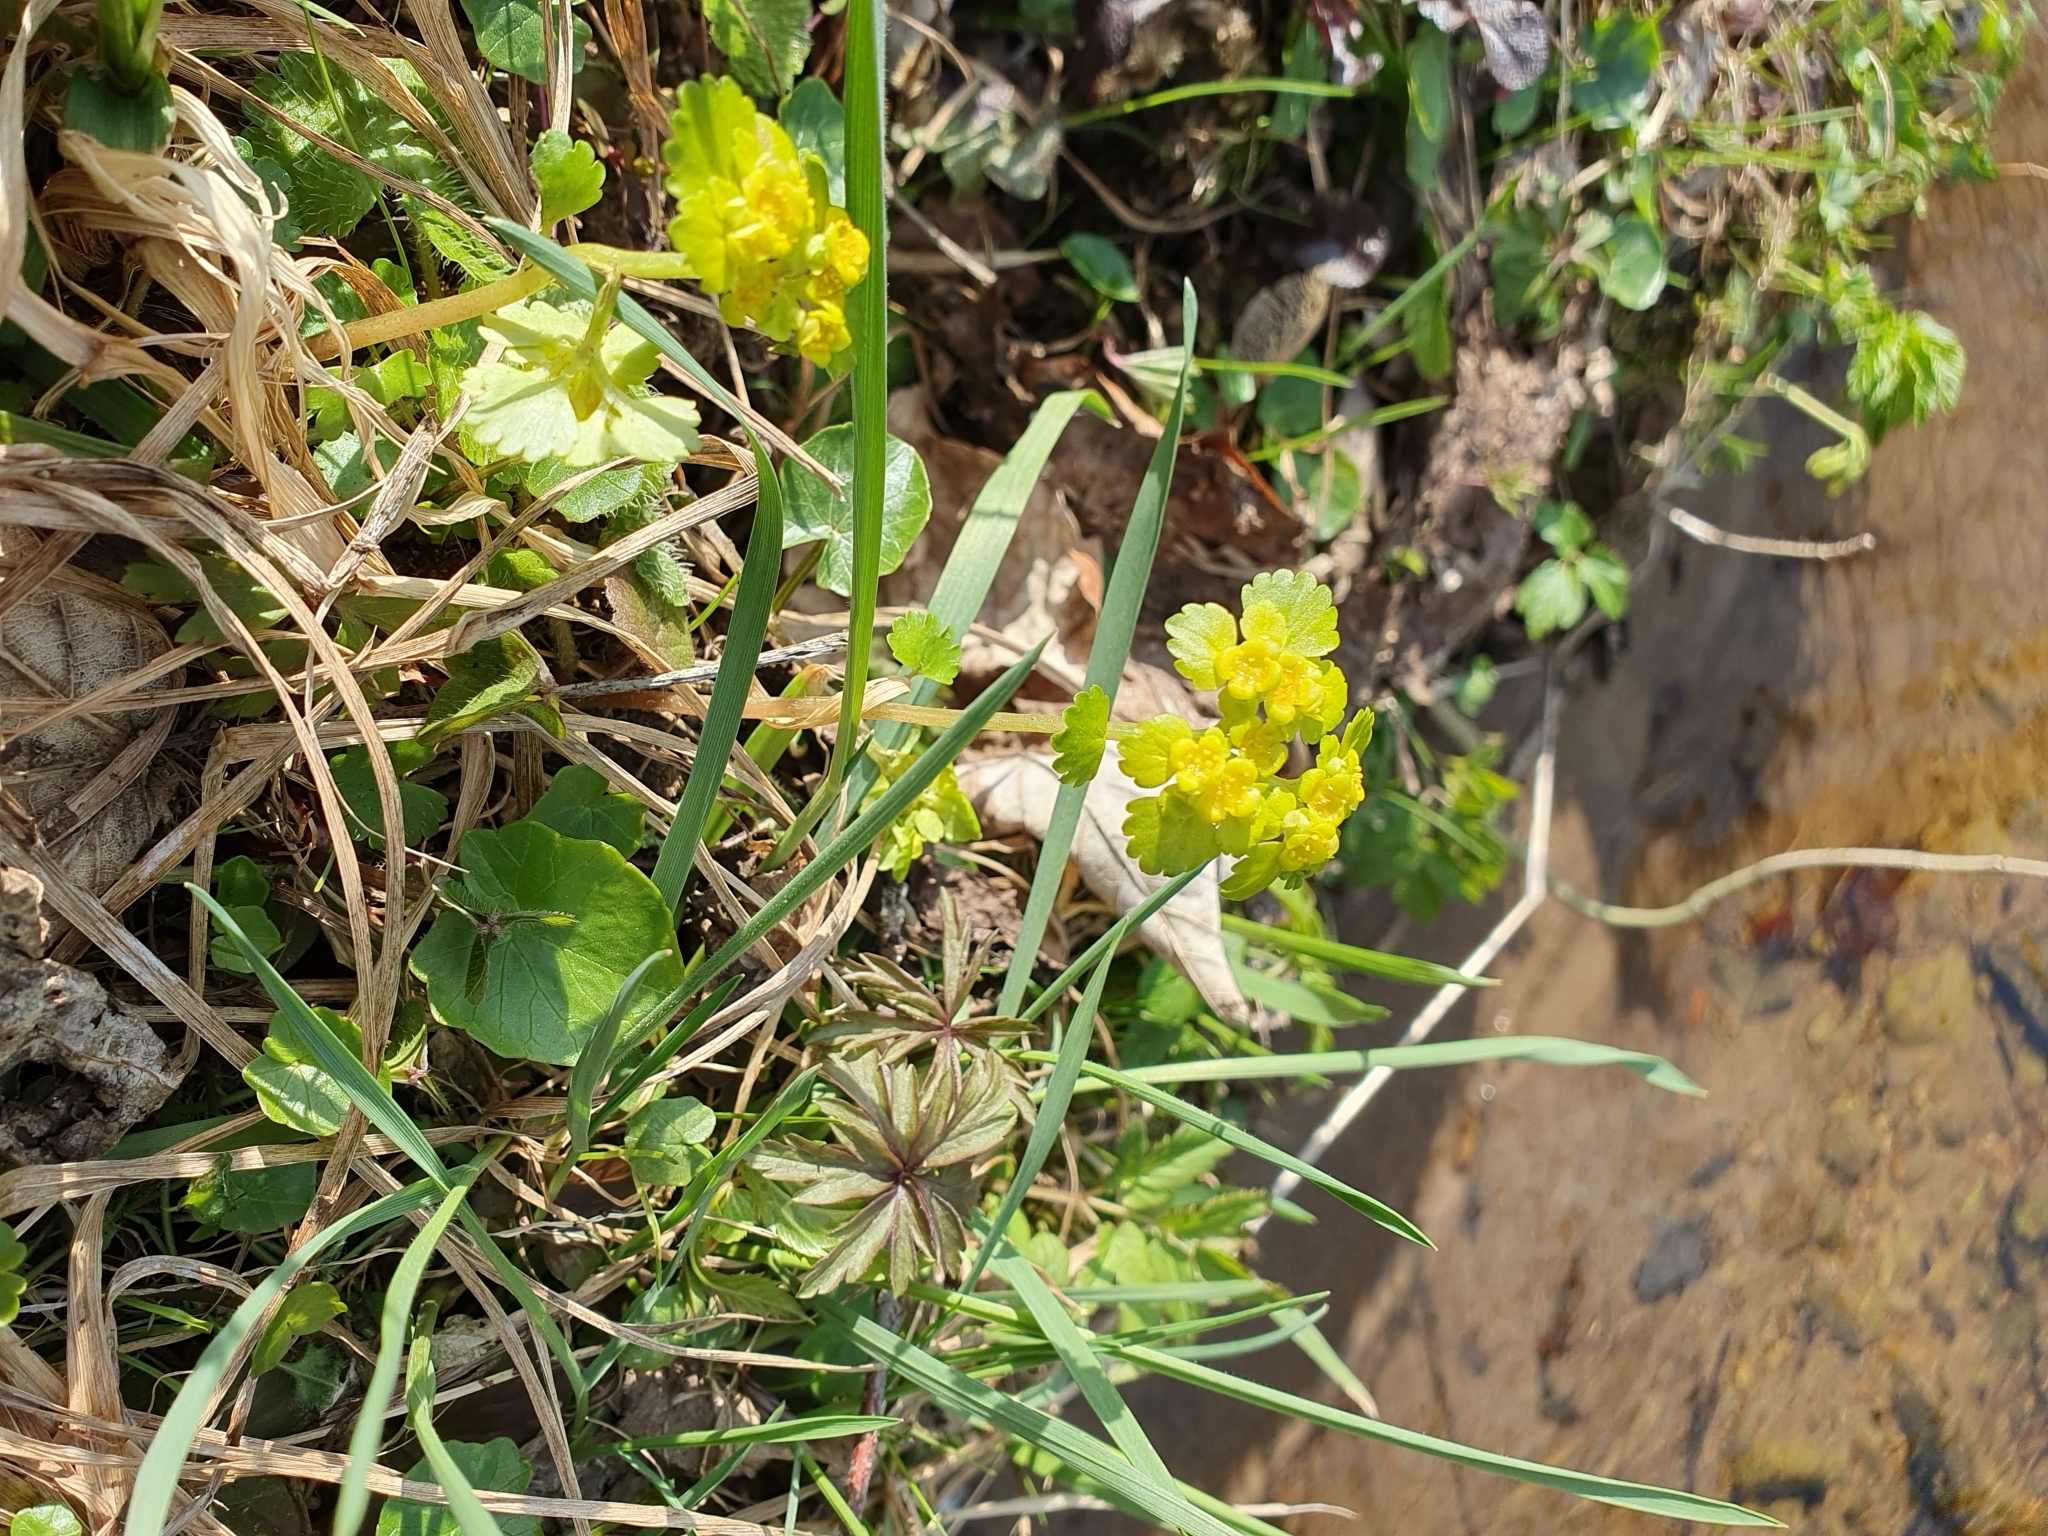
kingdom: Plantae
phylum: Tracheophyta
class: Magnoliopsida
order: Saxifragales
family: Saxifragaceae
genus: Chrysosplenium
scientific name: Chrysosplenium alternifolium
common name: Alternate-leaved golden-saxifrage
